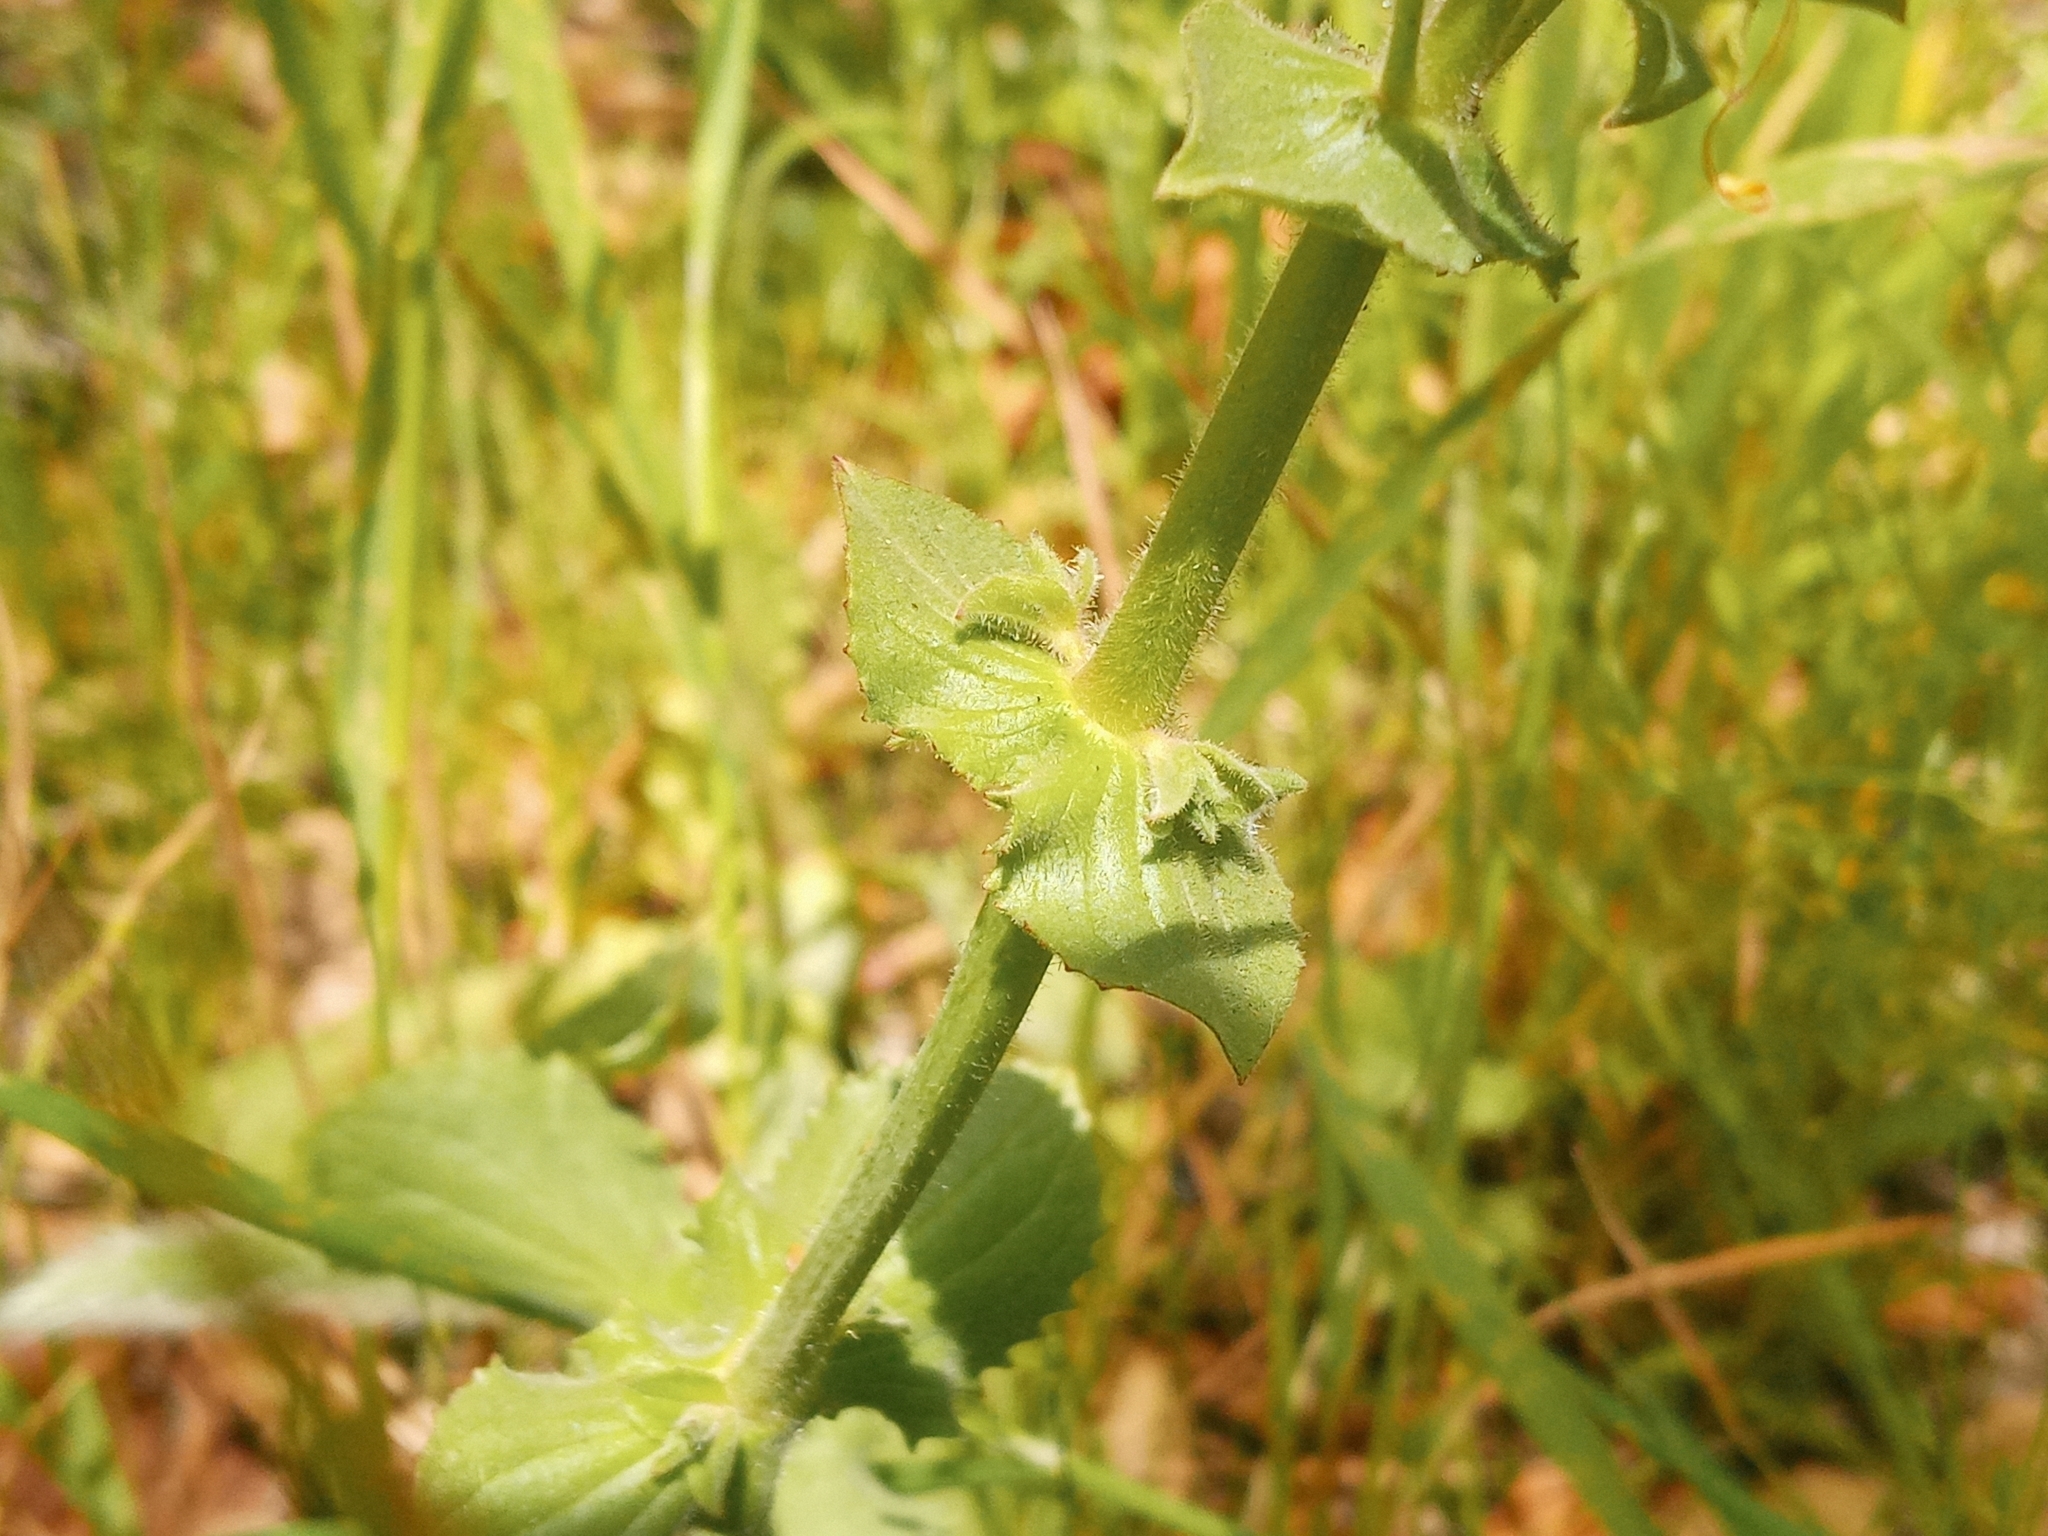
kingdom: Plantae
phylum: Tracheophyta
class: Magnoliopsida
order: Lamiales
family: Phrymaceae
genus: Erythranthe
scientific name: Erythranthe guttata
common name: Monkeyflower
